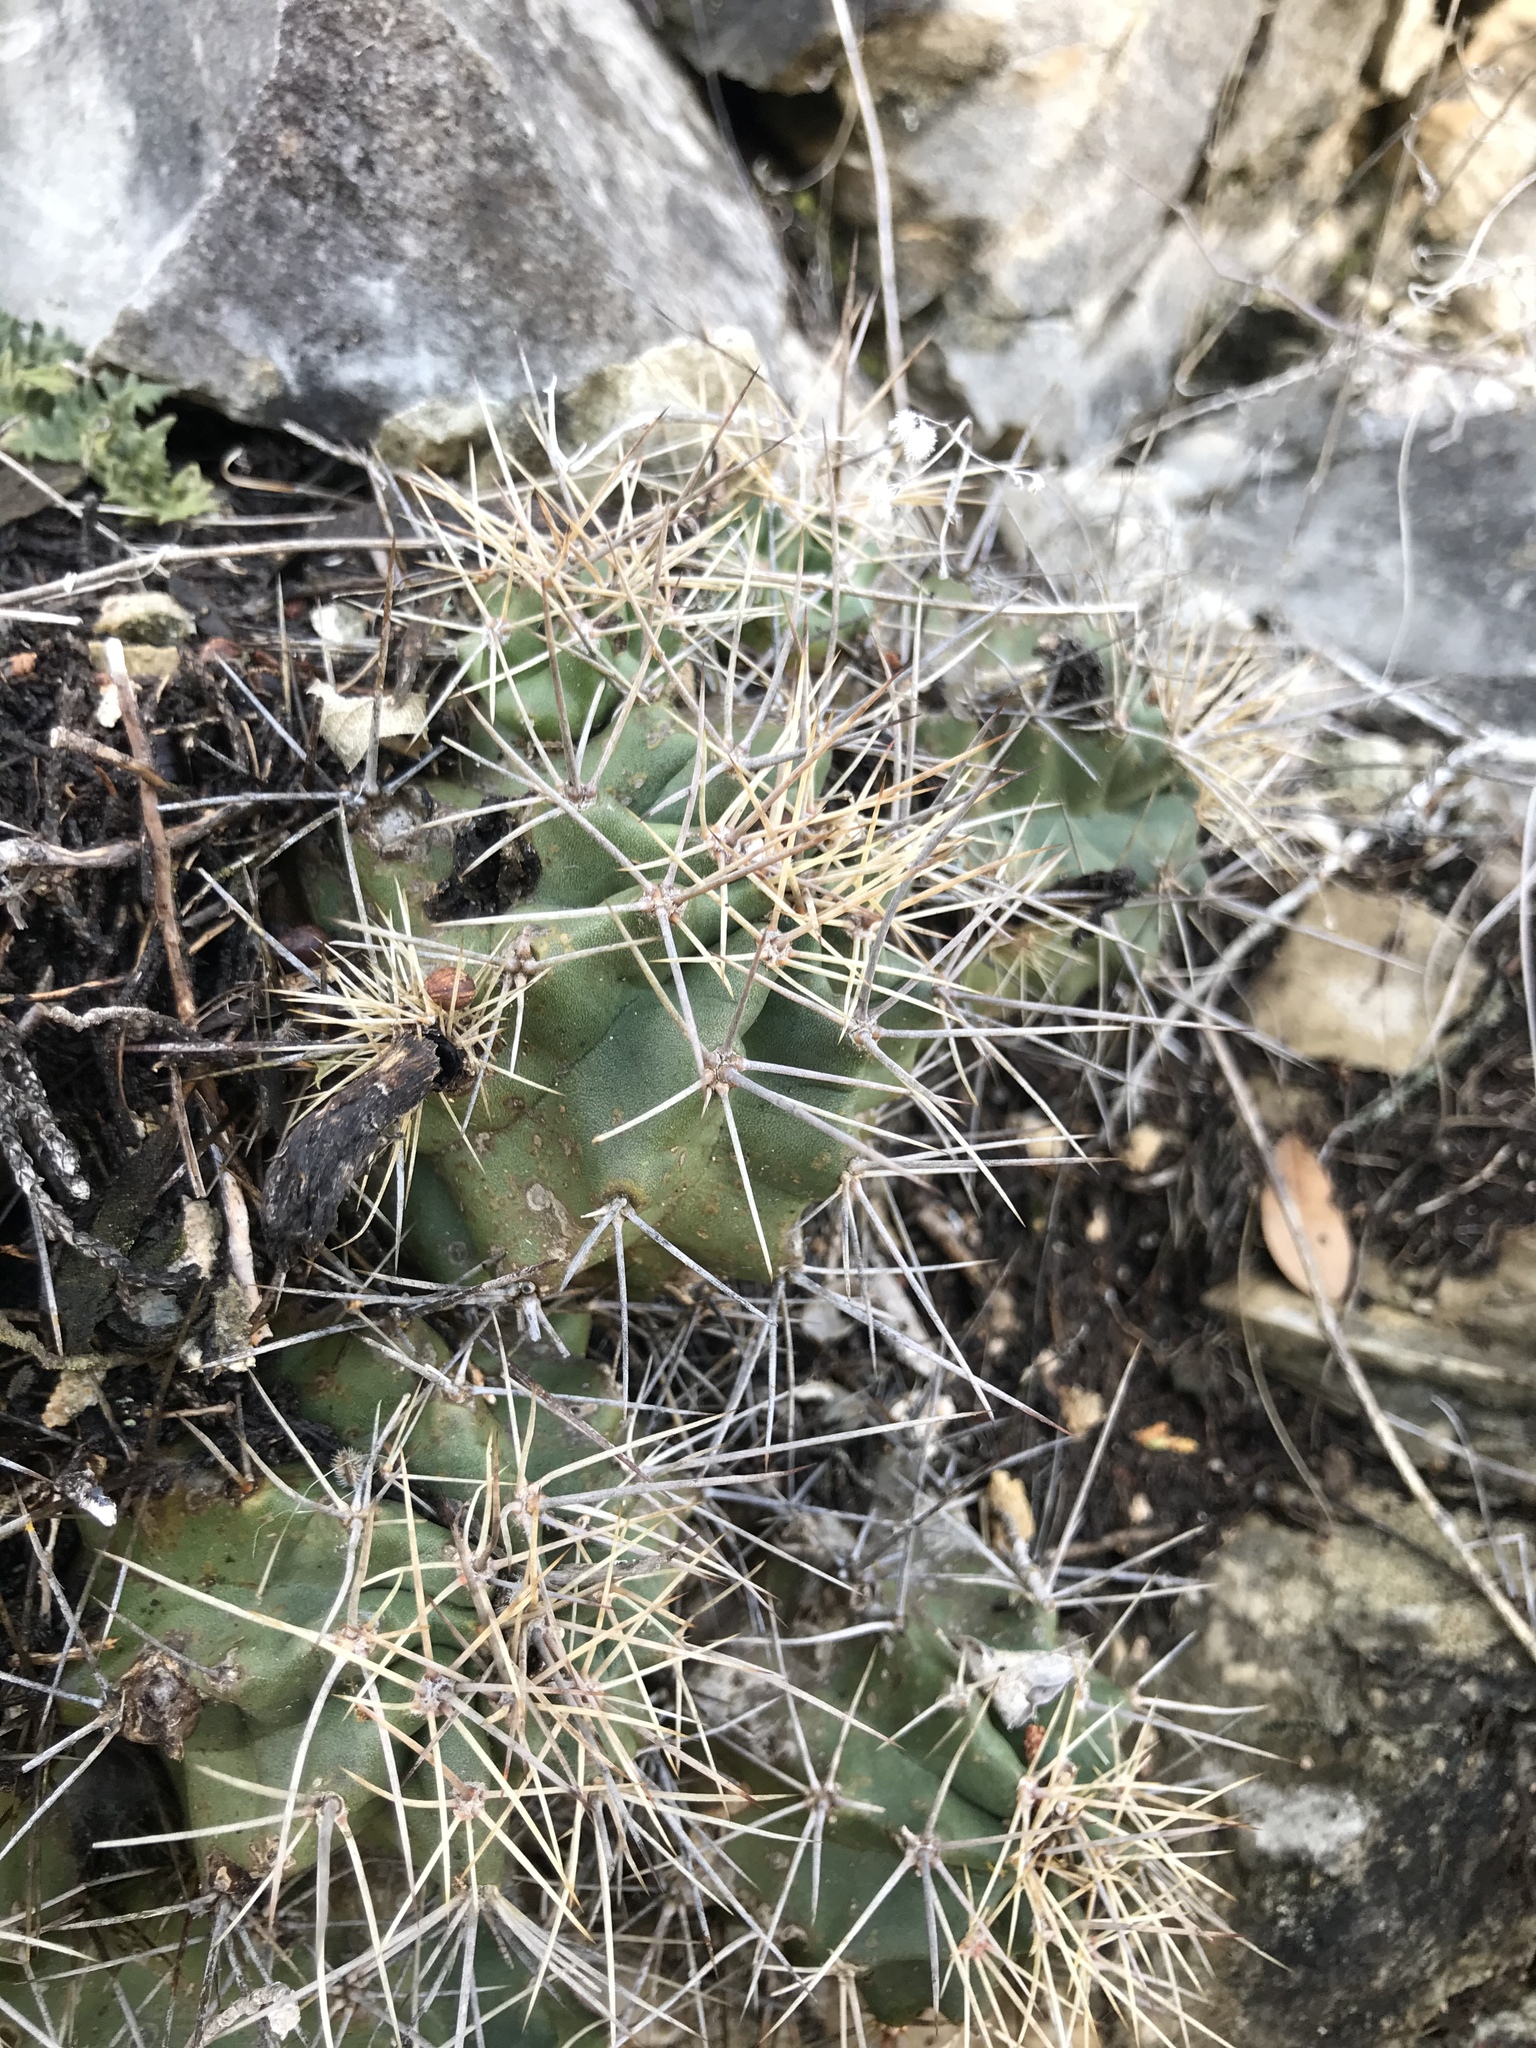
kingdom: Plantae
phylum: Tracheophyta
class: Magnoliopsida
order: Caryophyllales
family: Cactaceae
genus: Echinocereus
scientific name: Echinocereus coccineus
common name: Scarlet hedgehog cactus
